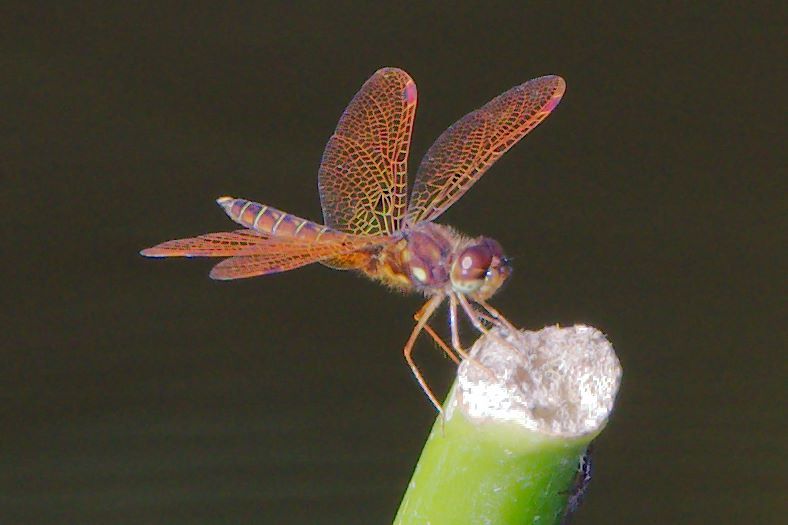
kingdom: Animalia
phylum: Arthropoda
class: Insecta
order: Odonata
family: Libellulidae
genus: Perithemis
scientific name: Perithemis tenera
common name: Eastern amberwing
